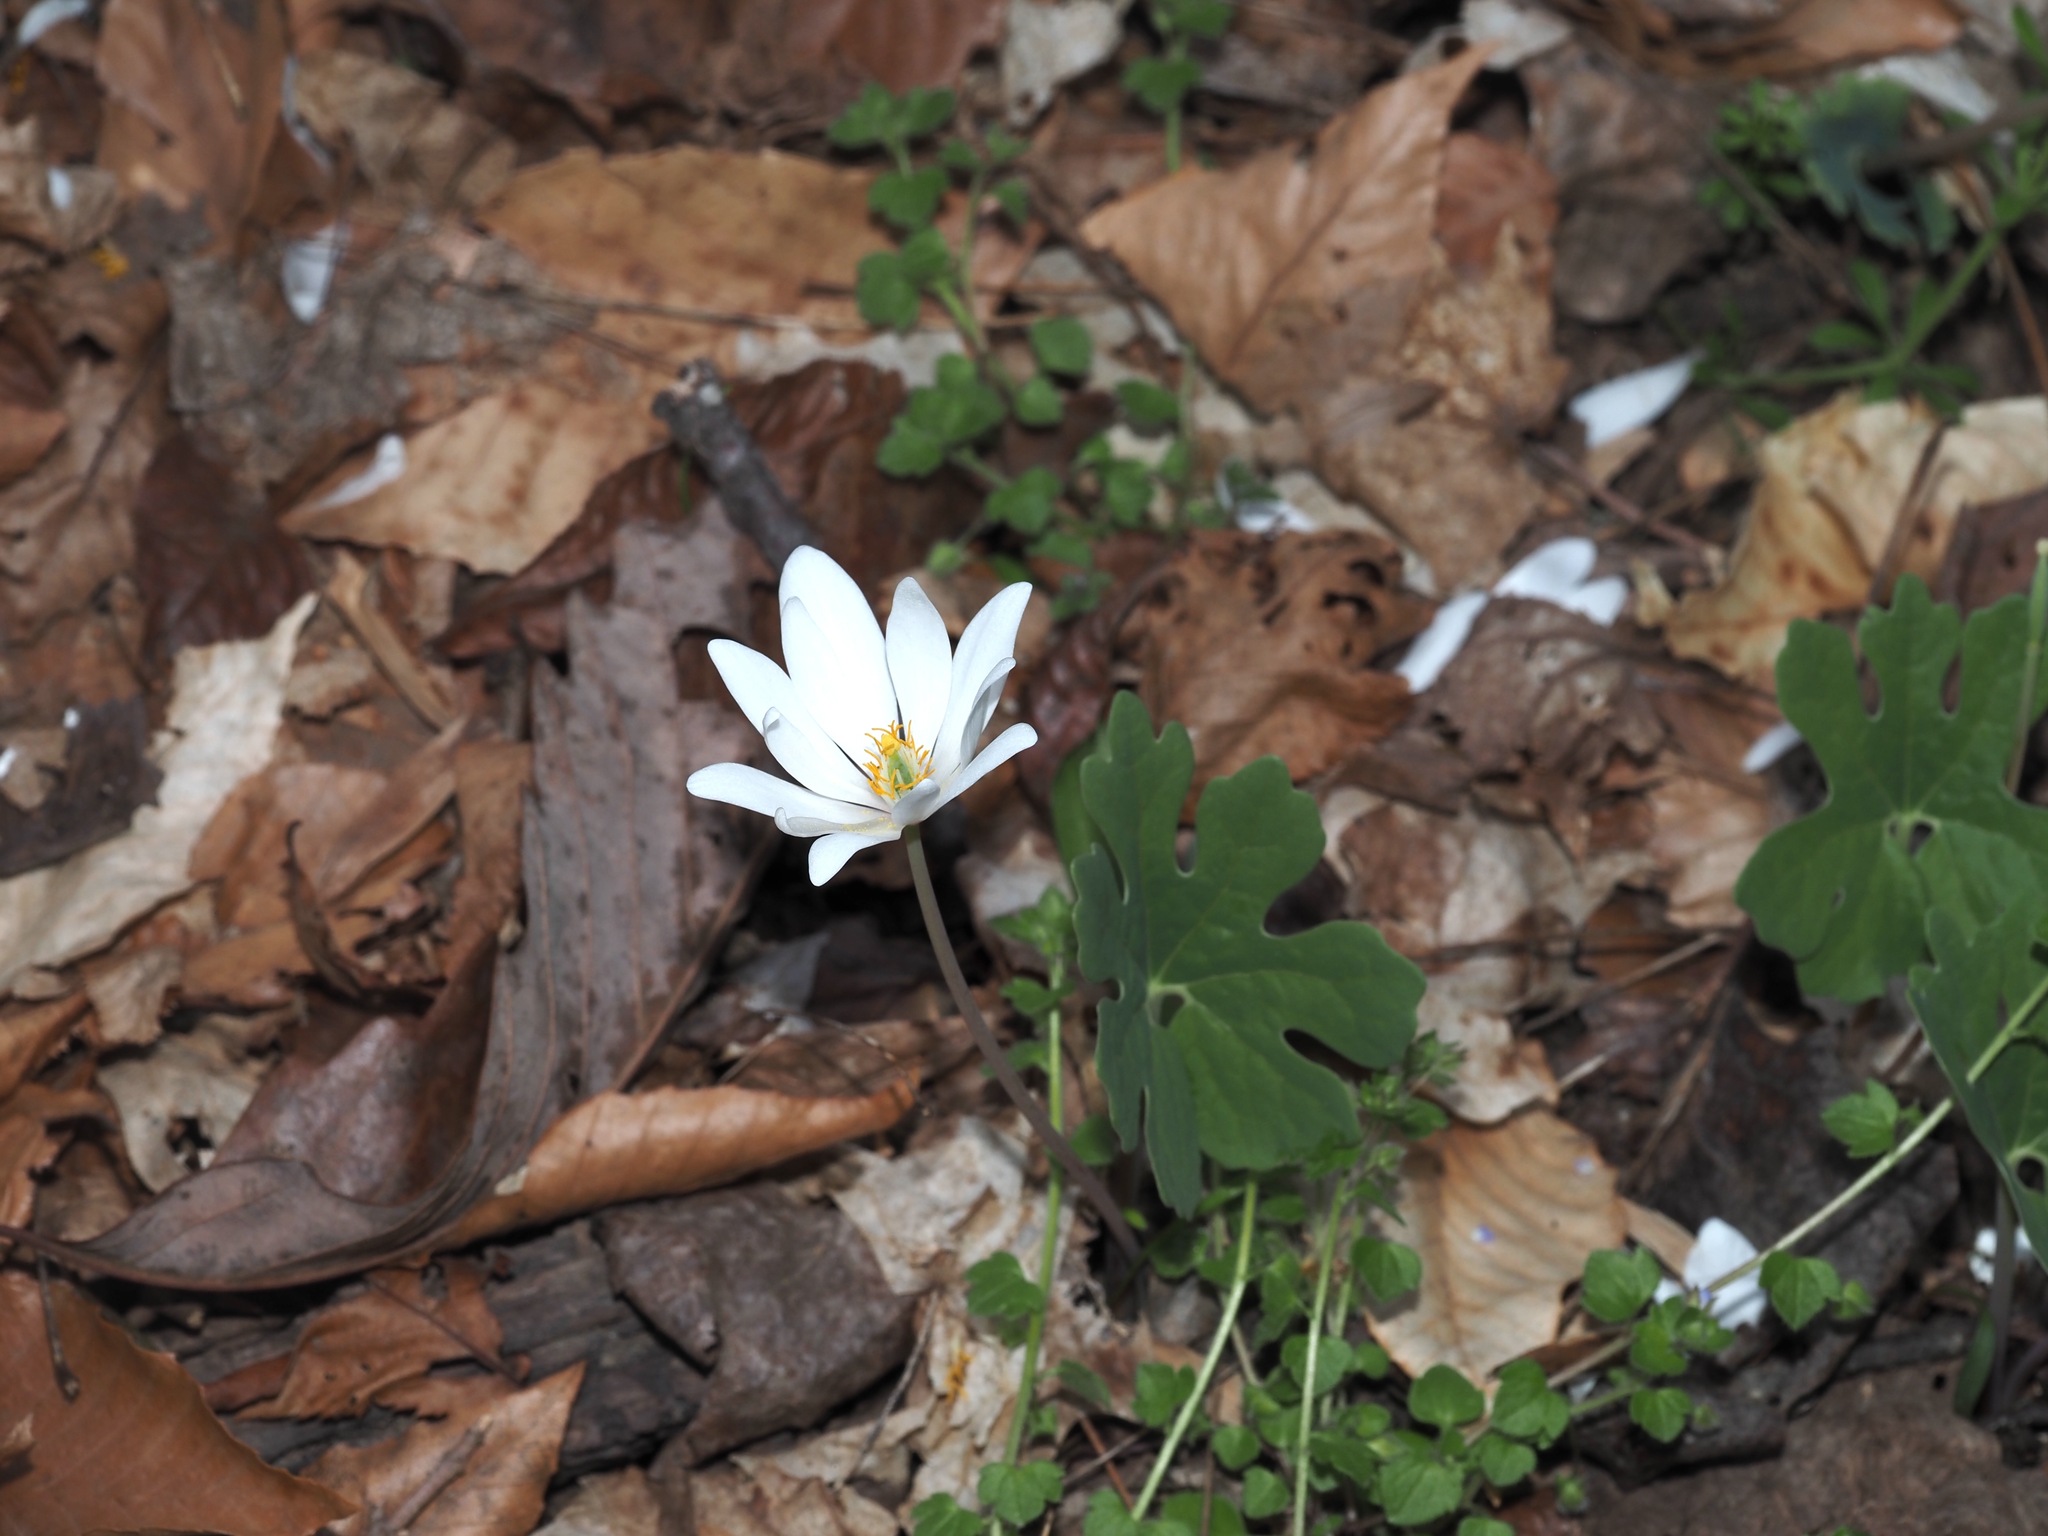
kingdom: Plantae
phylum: Tracheophyta
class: Magnoliopsida
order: Ranunculales
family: Papaveraceae
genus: Sanguinaria
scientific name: Sanguinaria canadensis
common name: Bloodroot
